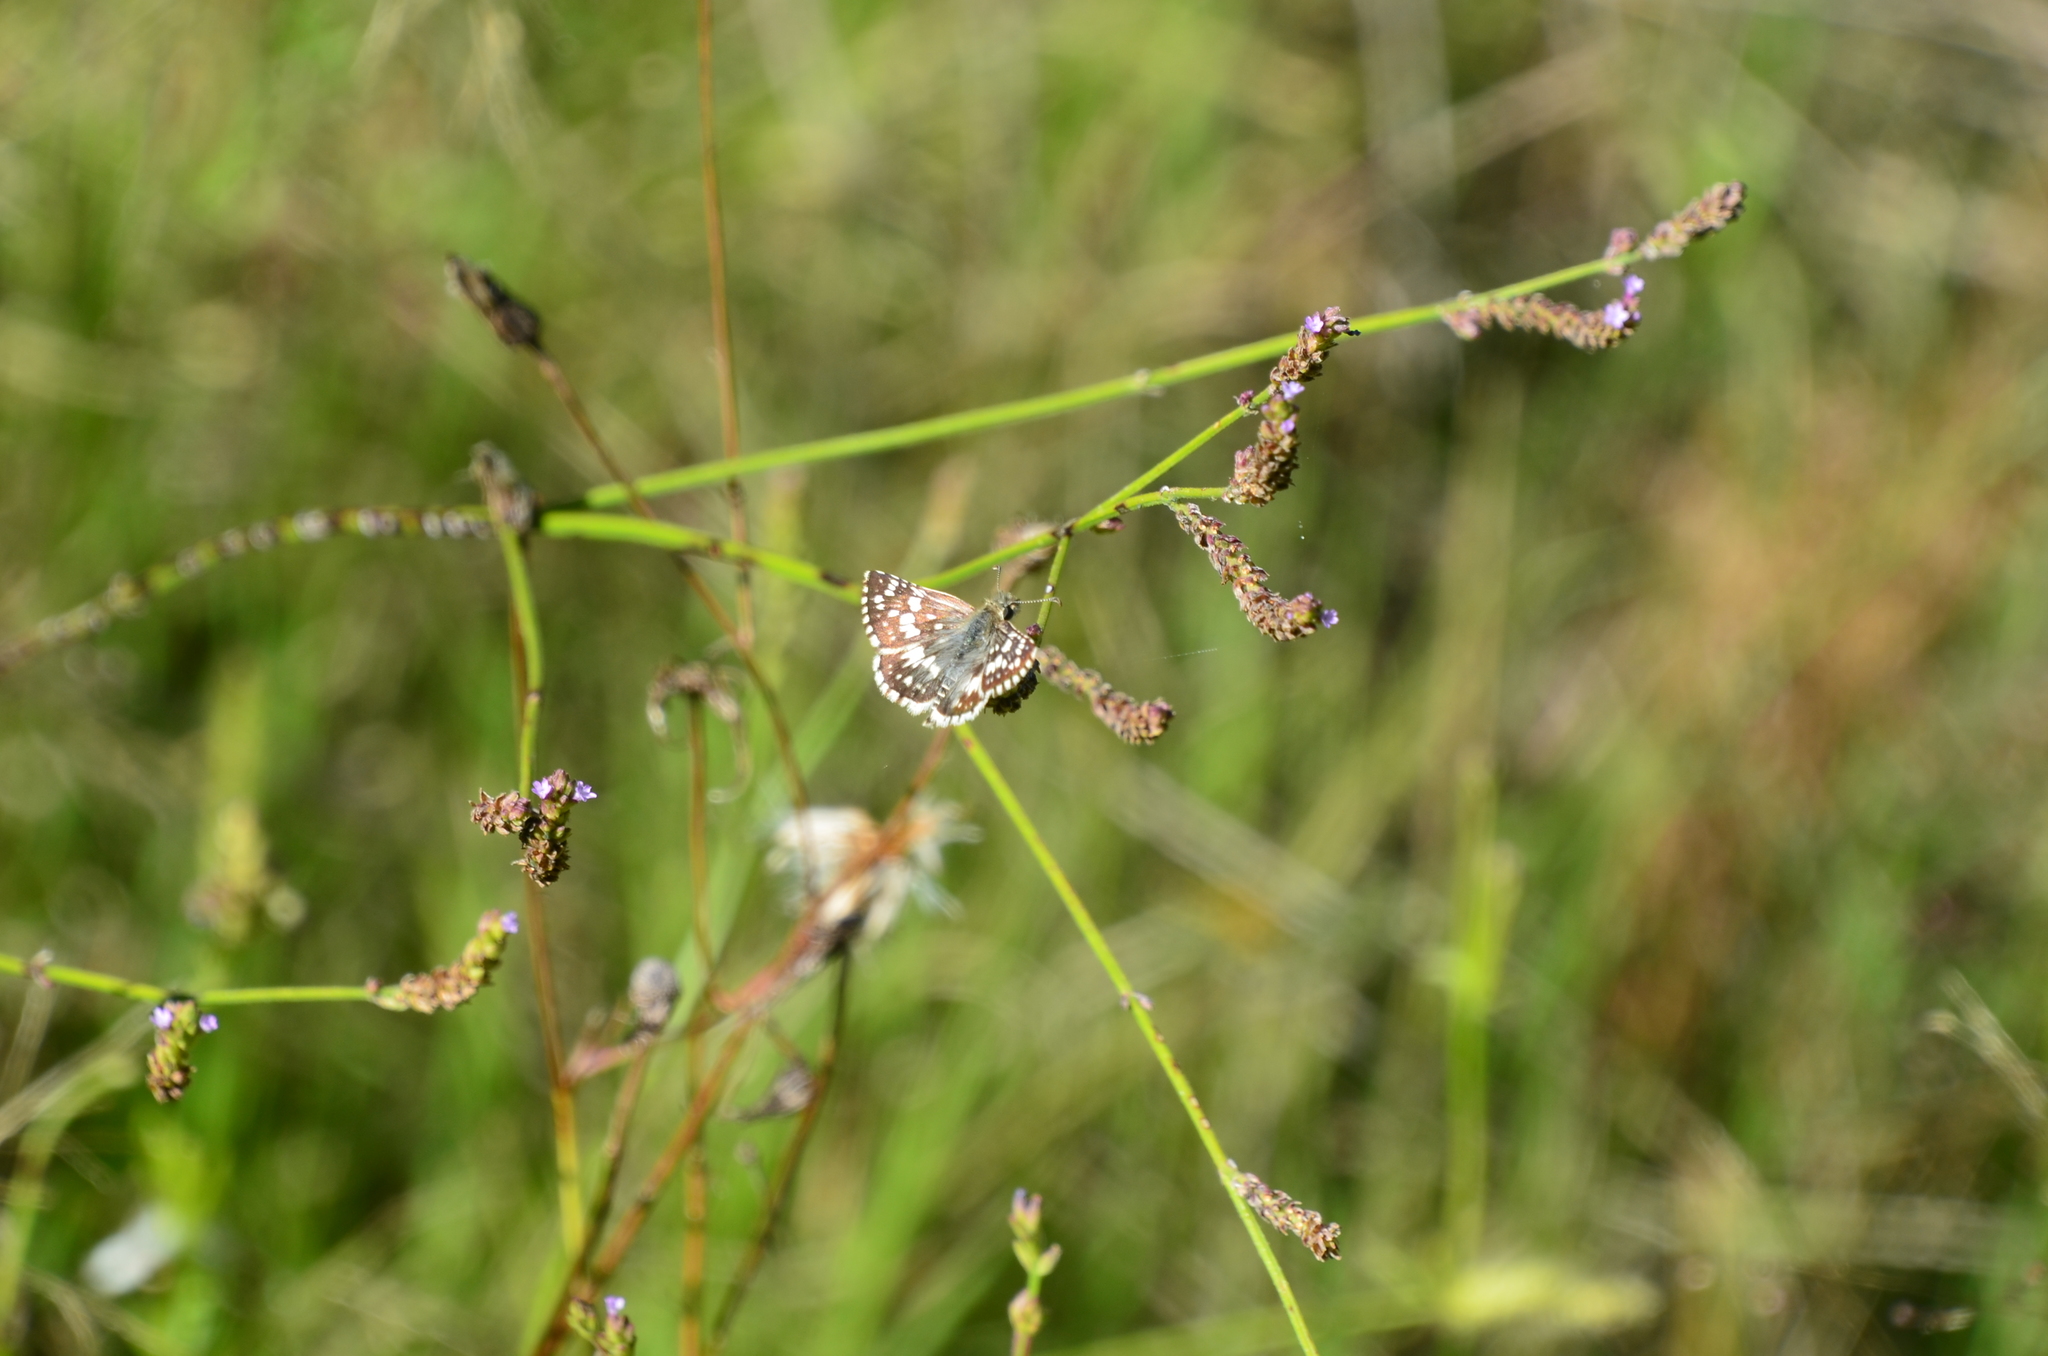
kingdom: Animalia
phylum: Arthropoda
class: Insecta
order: Lepidoptera
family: Hesperiidae
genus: Burnsius
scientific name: Burnsius orcynoides
